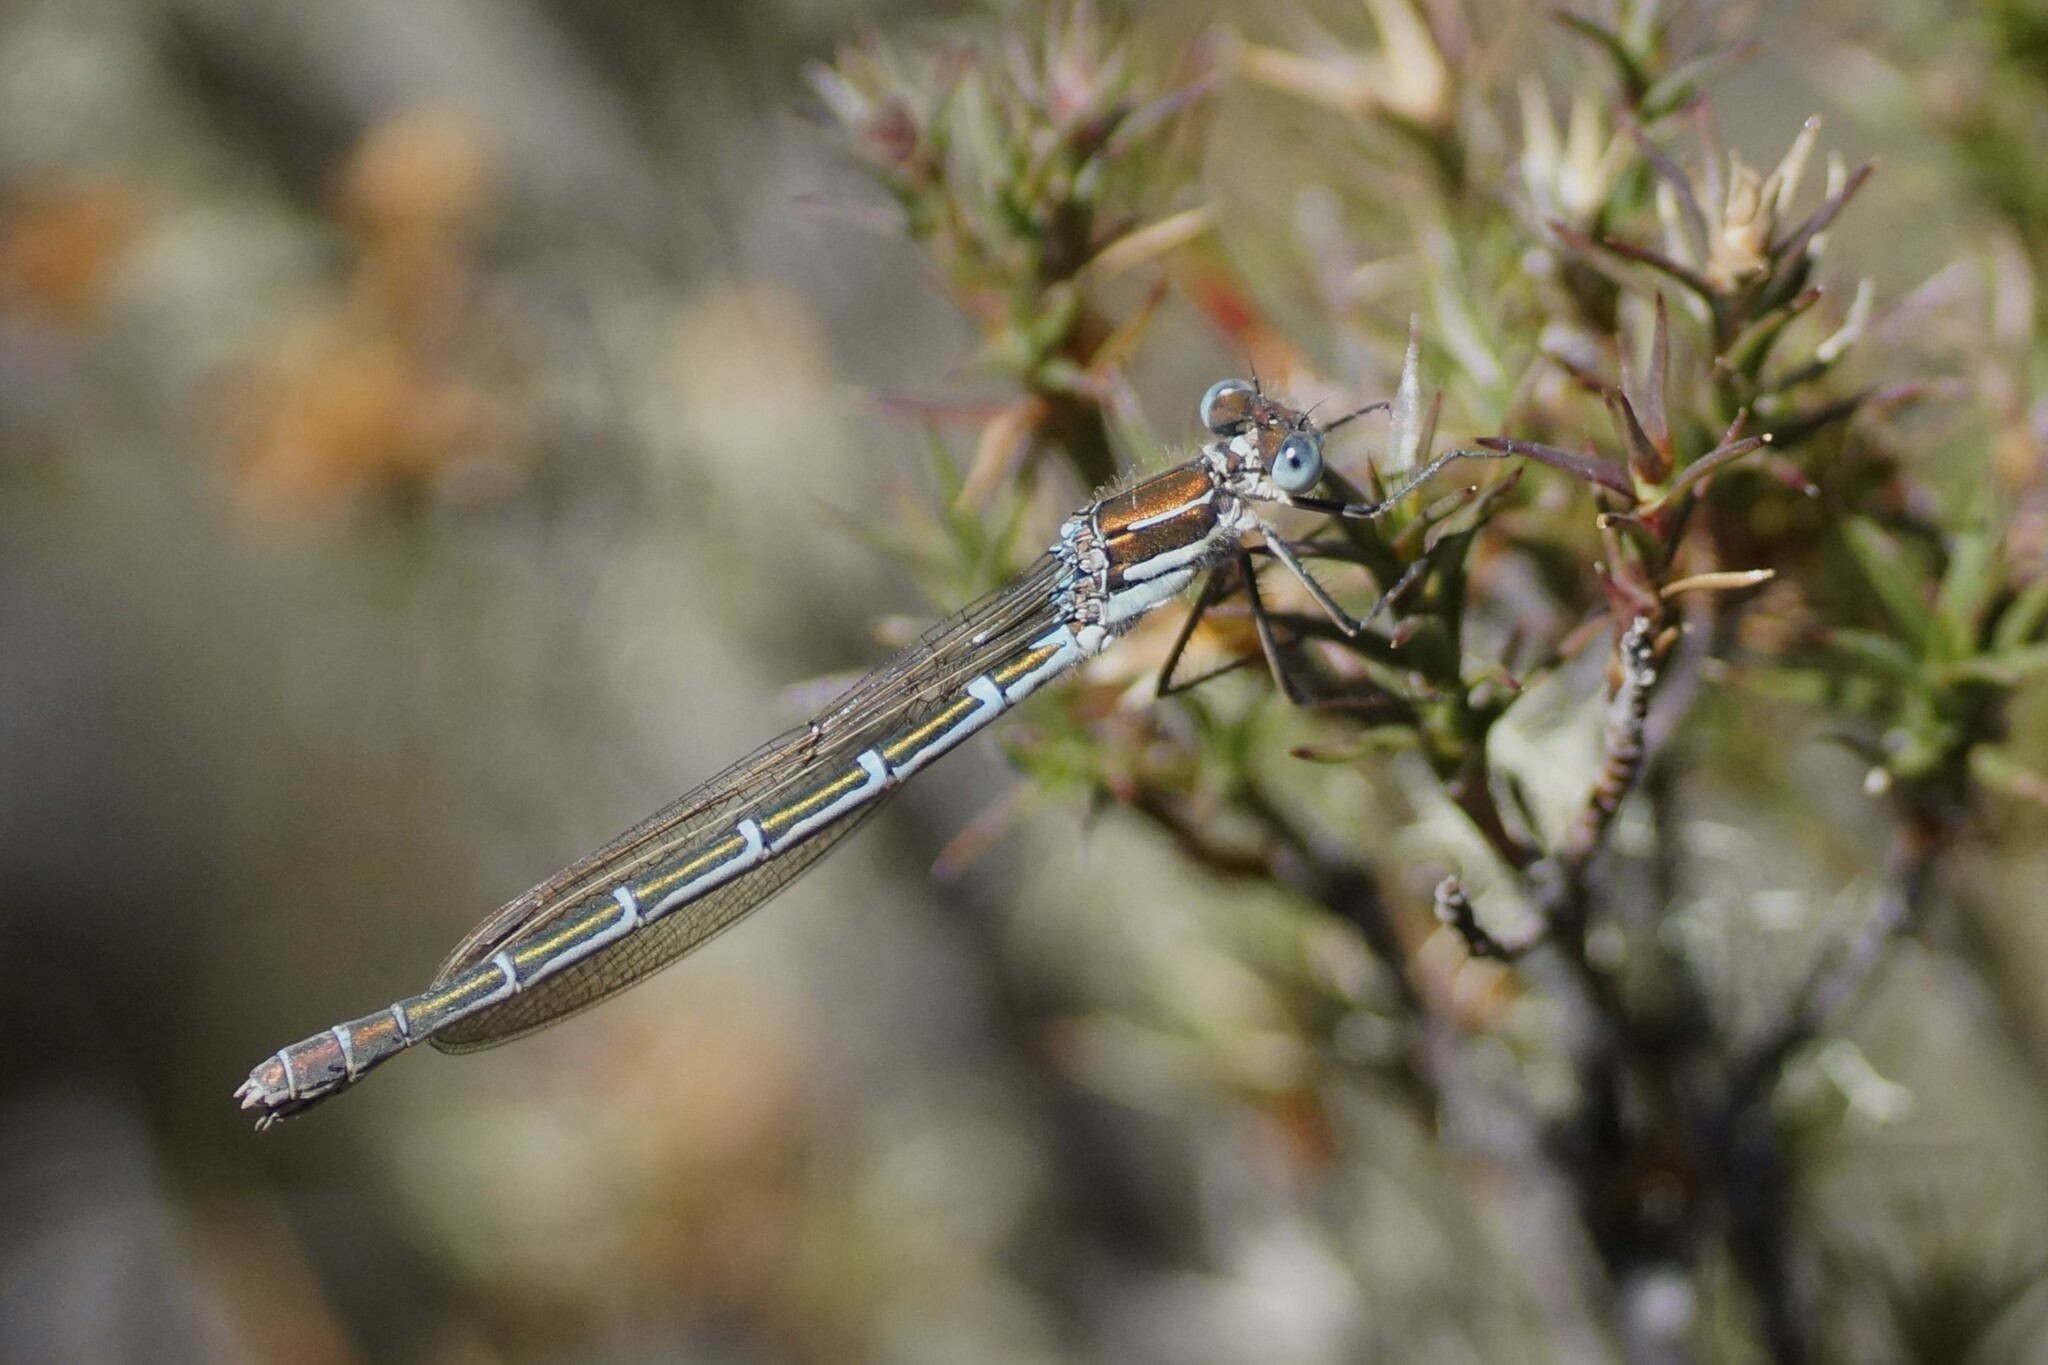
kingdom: Animalia
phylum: Arthropoda
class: Insecta
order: Odonata
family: Lestidae
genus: Austrolestes
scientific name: Austrolestes cingulatus
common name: Metallic ringtail
